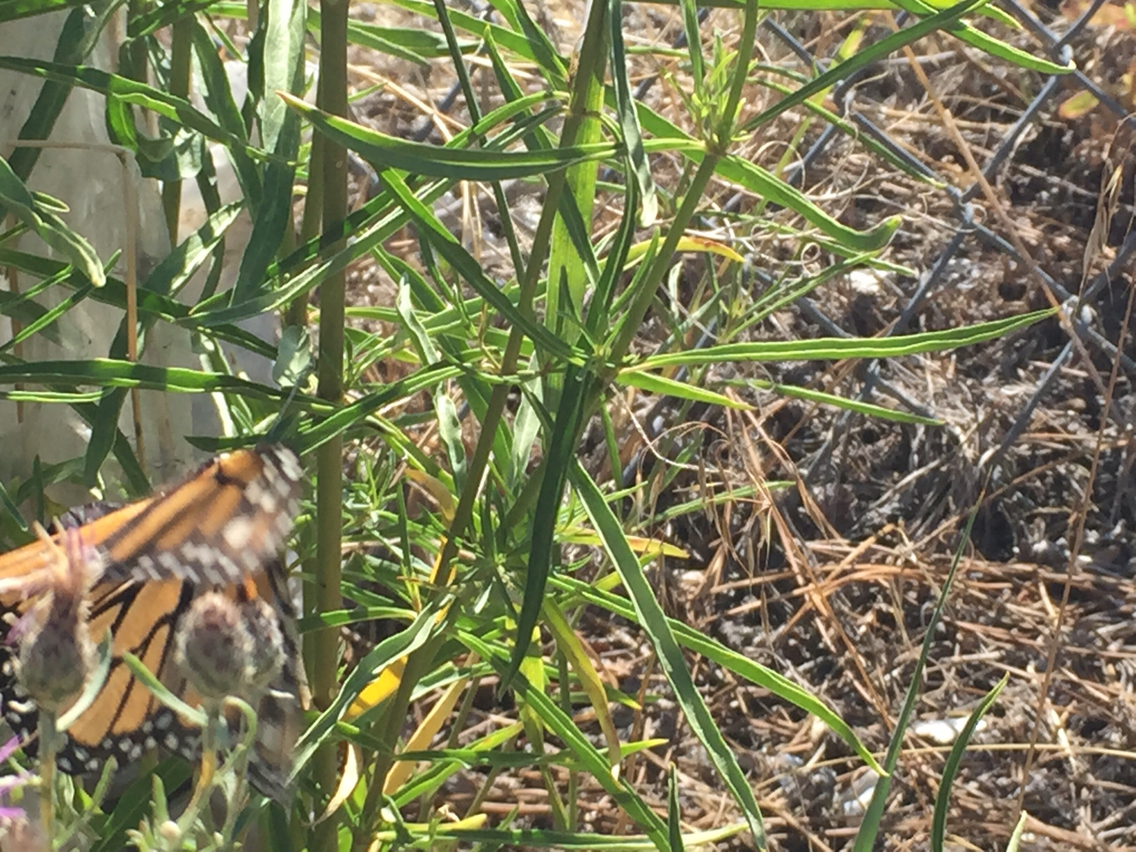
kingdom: Animalia
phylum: Arthropoda
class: Insecta
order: Lepidoptera
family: Nymphalidae
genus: Danaus
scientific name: Danaus plexippus
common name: Monarch
